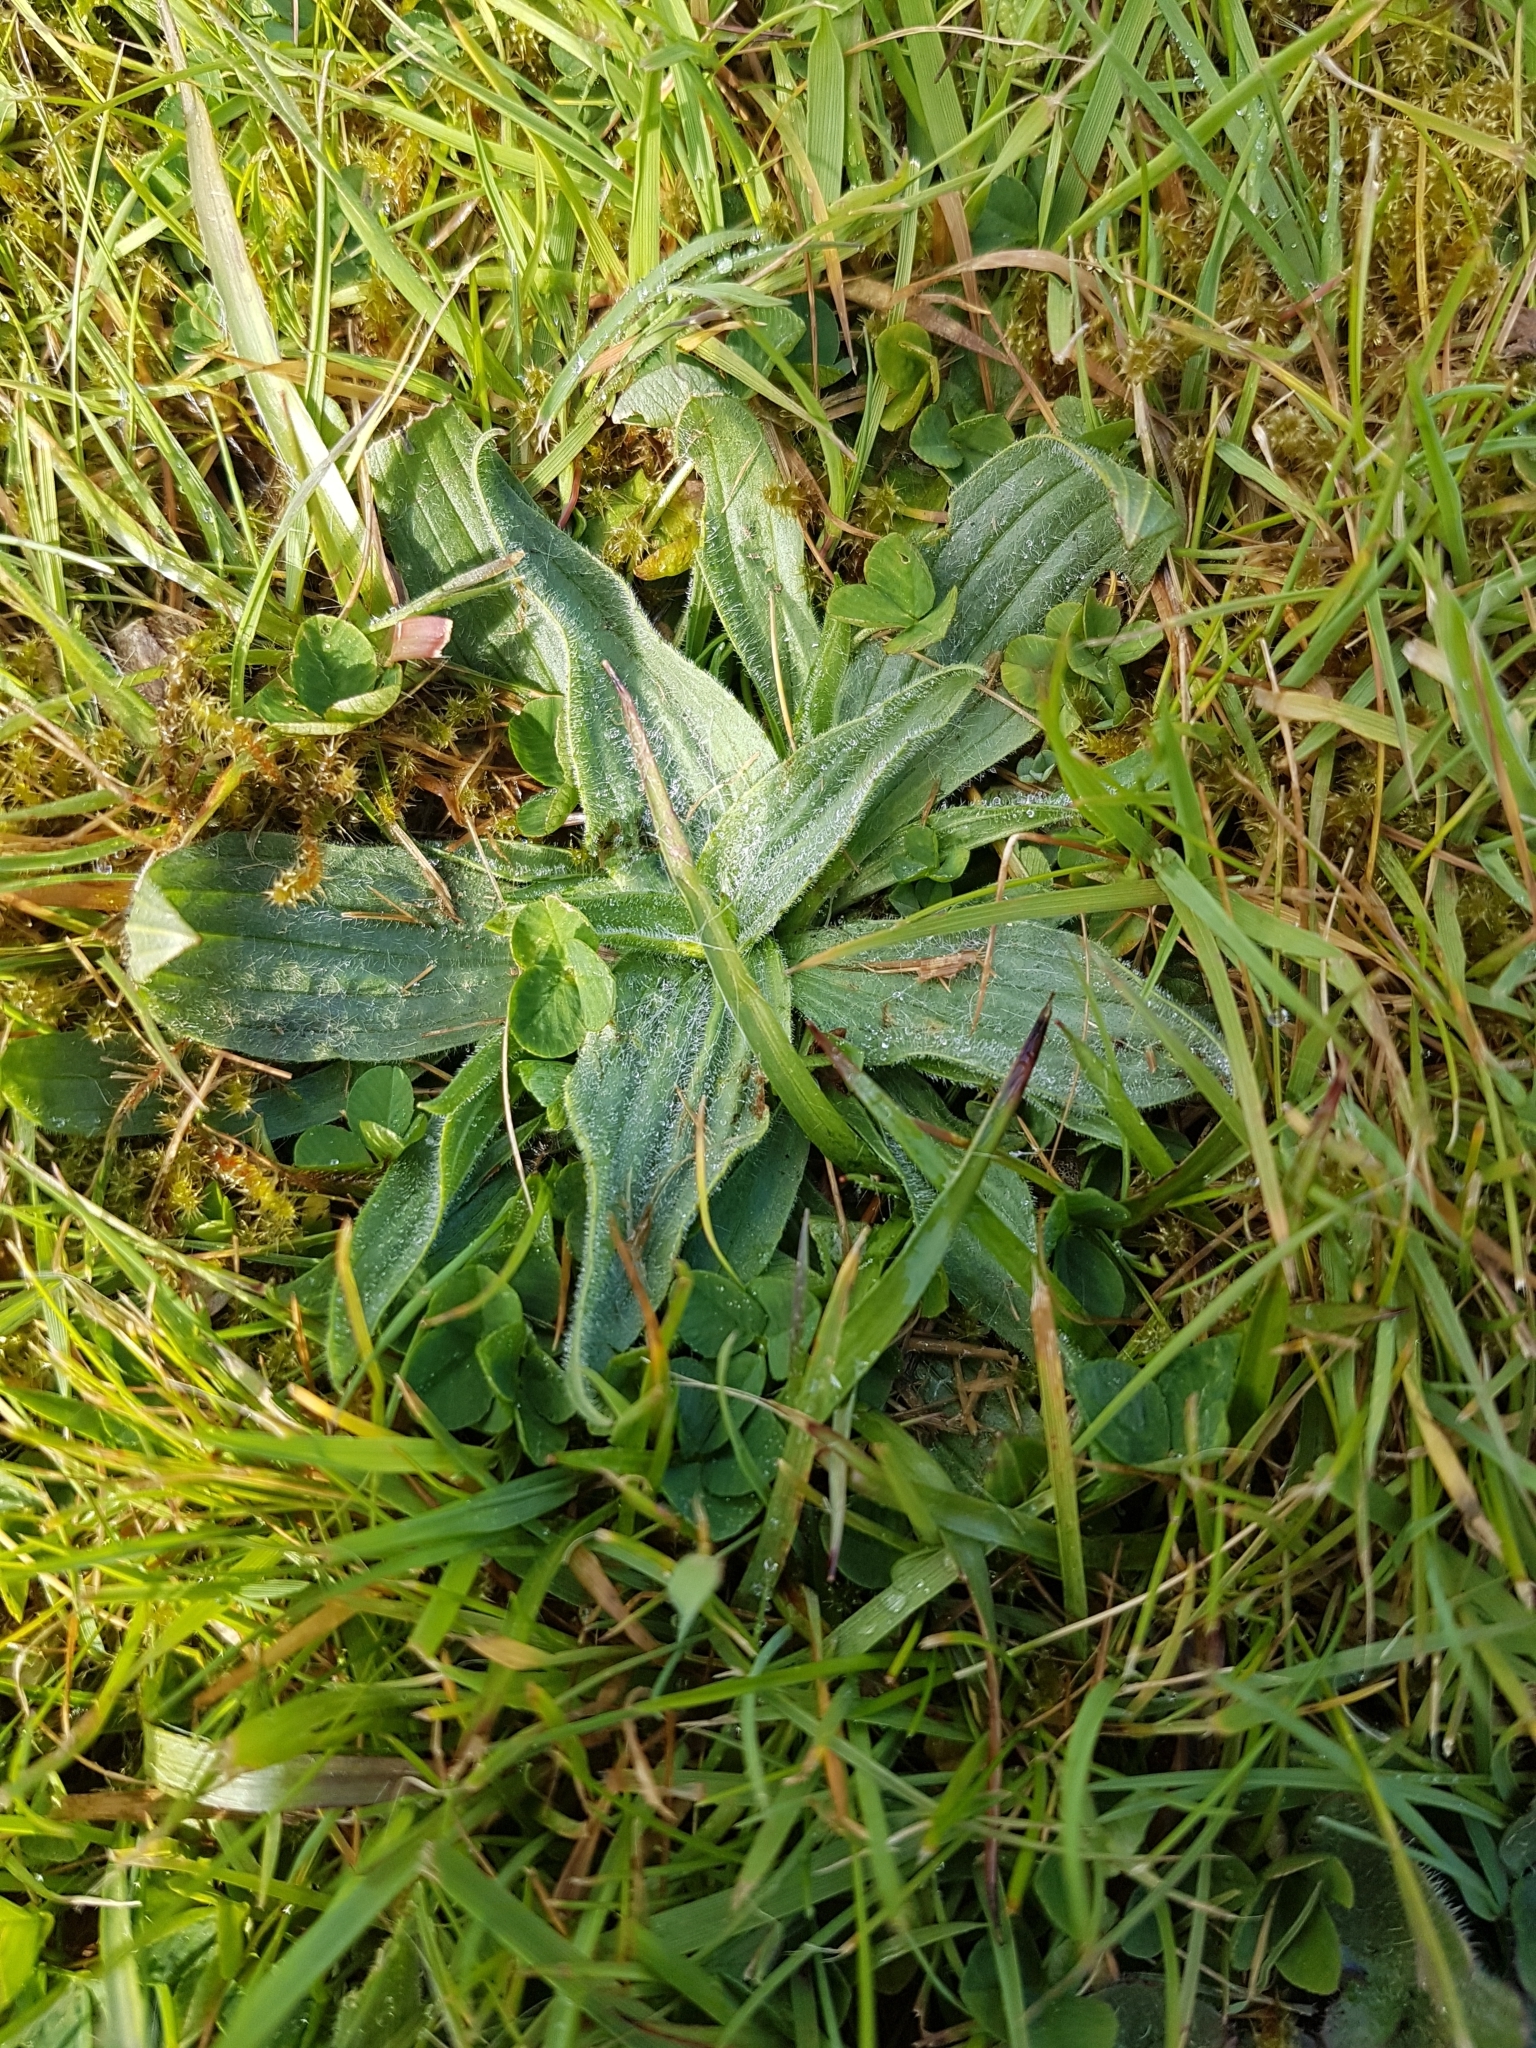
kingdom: Plantae
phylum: Tracheophyta
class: Magnoliopsida
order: Lamiales
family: Plantaginaceae
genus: Plantago
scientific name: Plantago lanceolata
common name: Ribwort plantain
